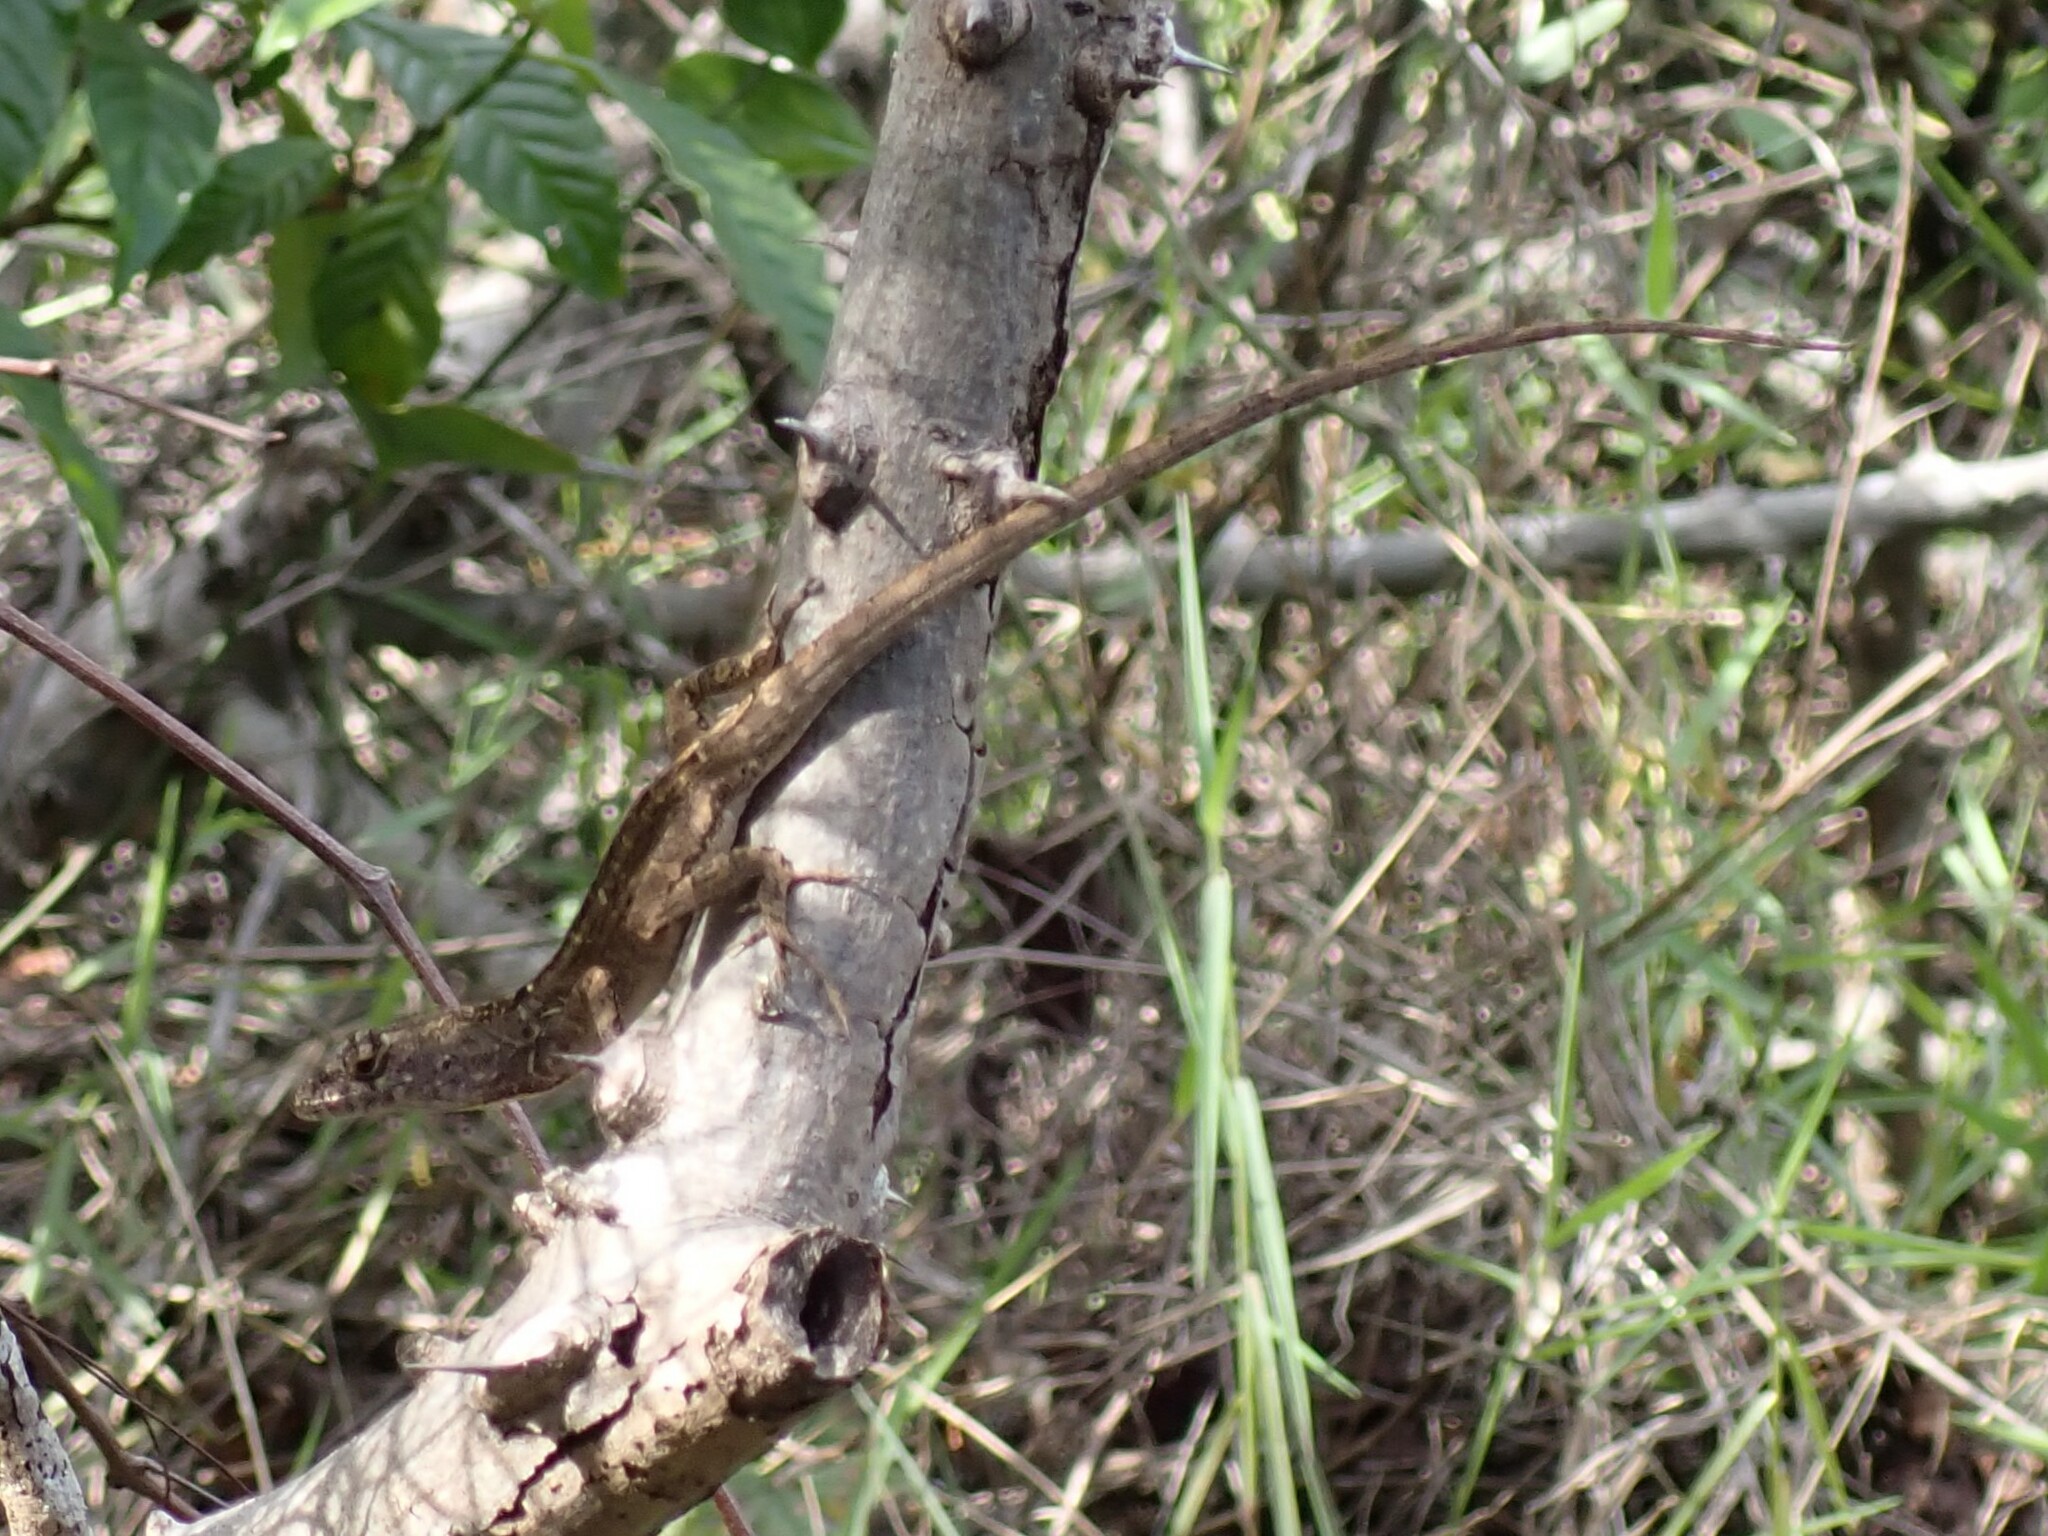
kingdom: Animalia
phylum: Chordata
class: Squamata
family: Dactyloidae
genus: Anolis
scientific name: Anolis sagrei
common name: Brown anole
